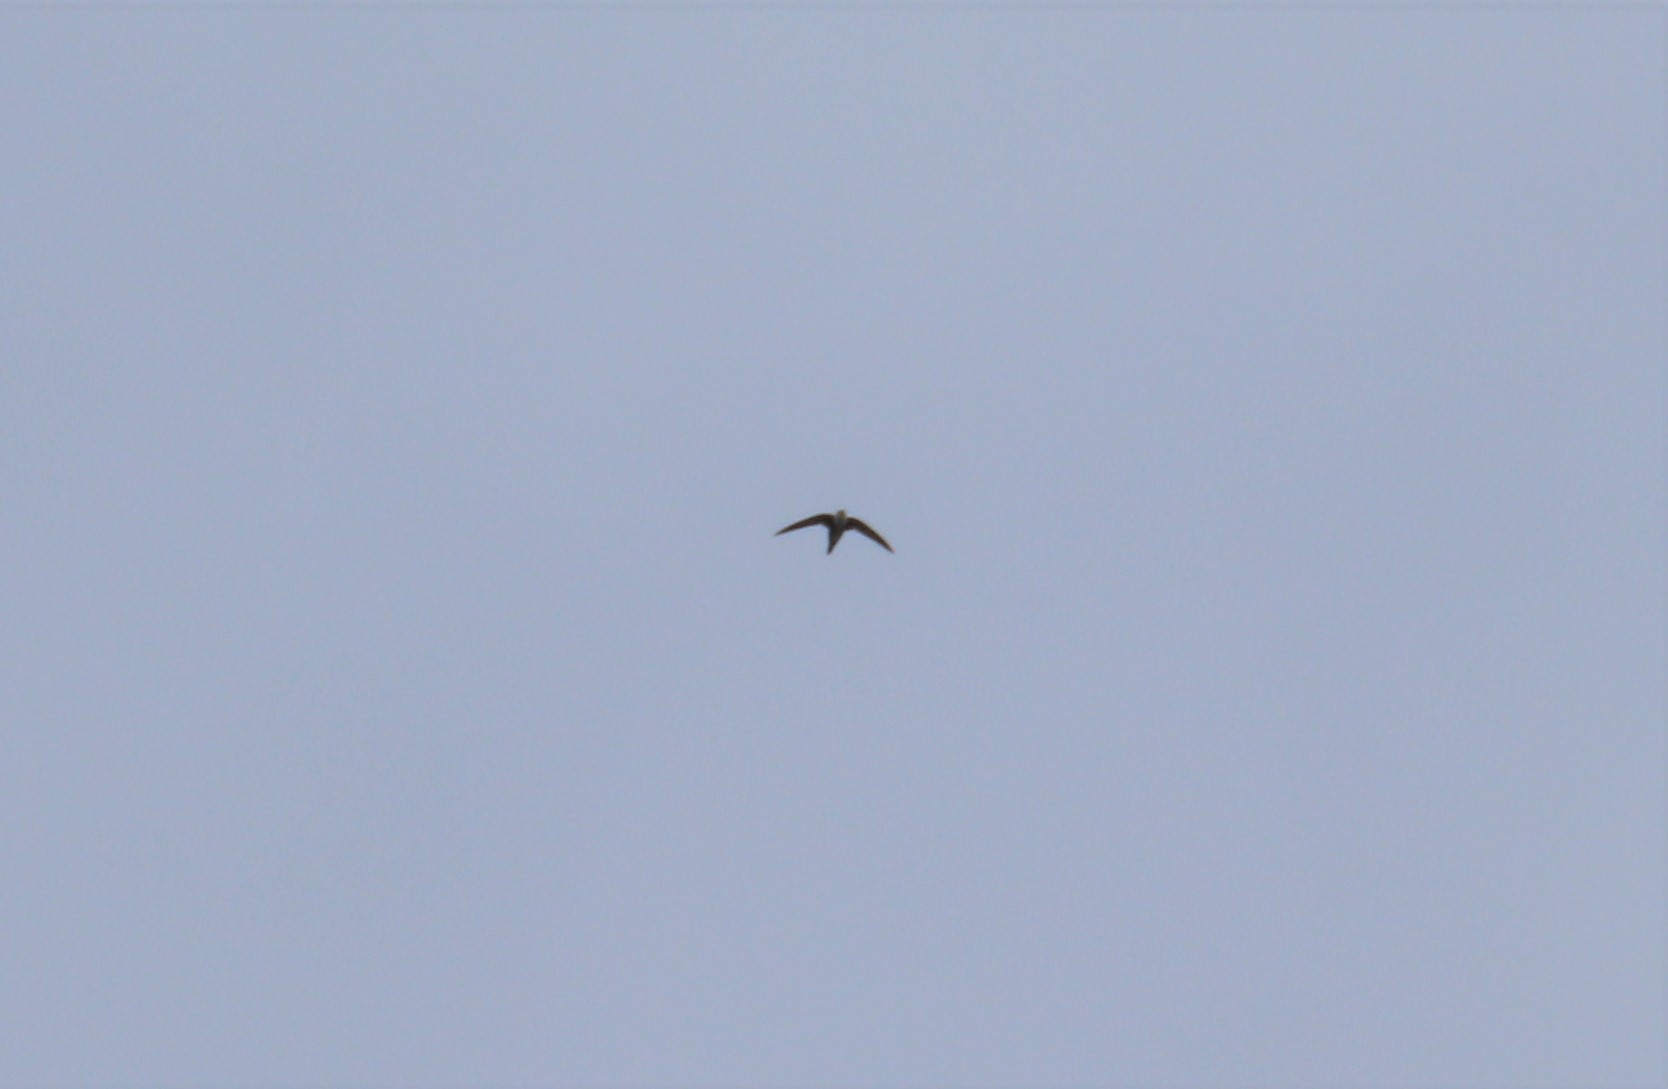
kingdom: Animalia
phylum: Chordata
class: Aves
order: Apodiformes
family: Apodidae
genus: Aeronautes
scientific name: Aeronautes saxatalis
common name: White-throated swift
